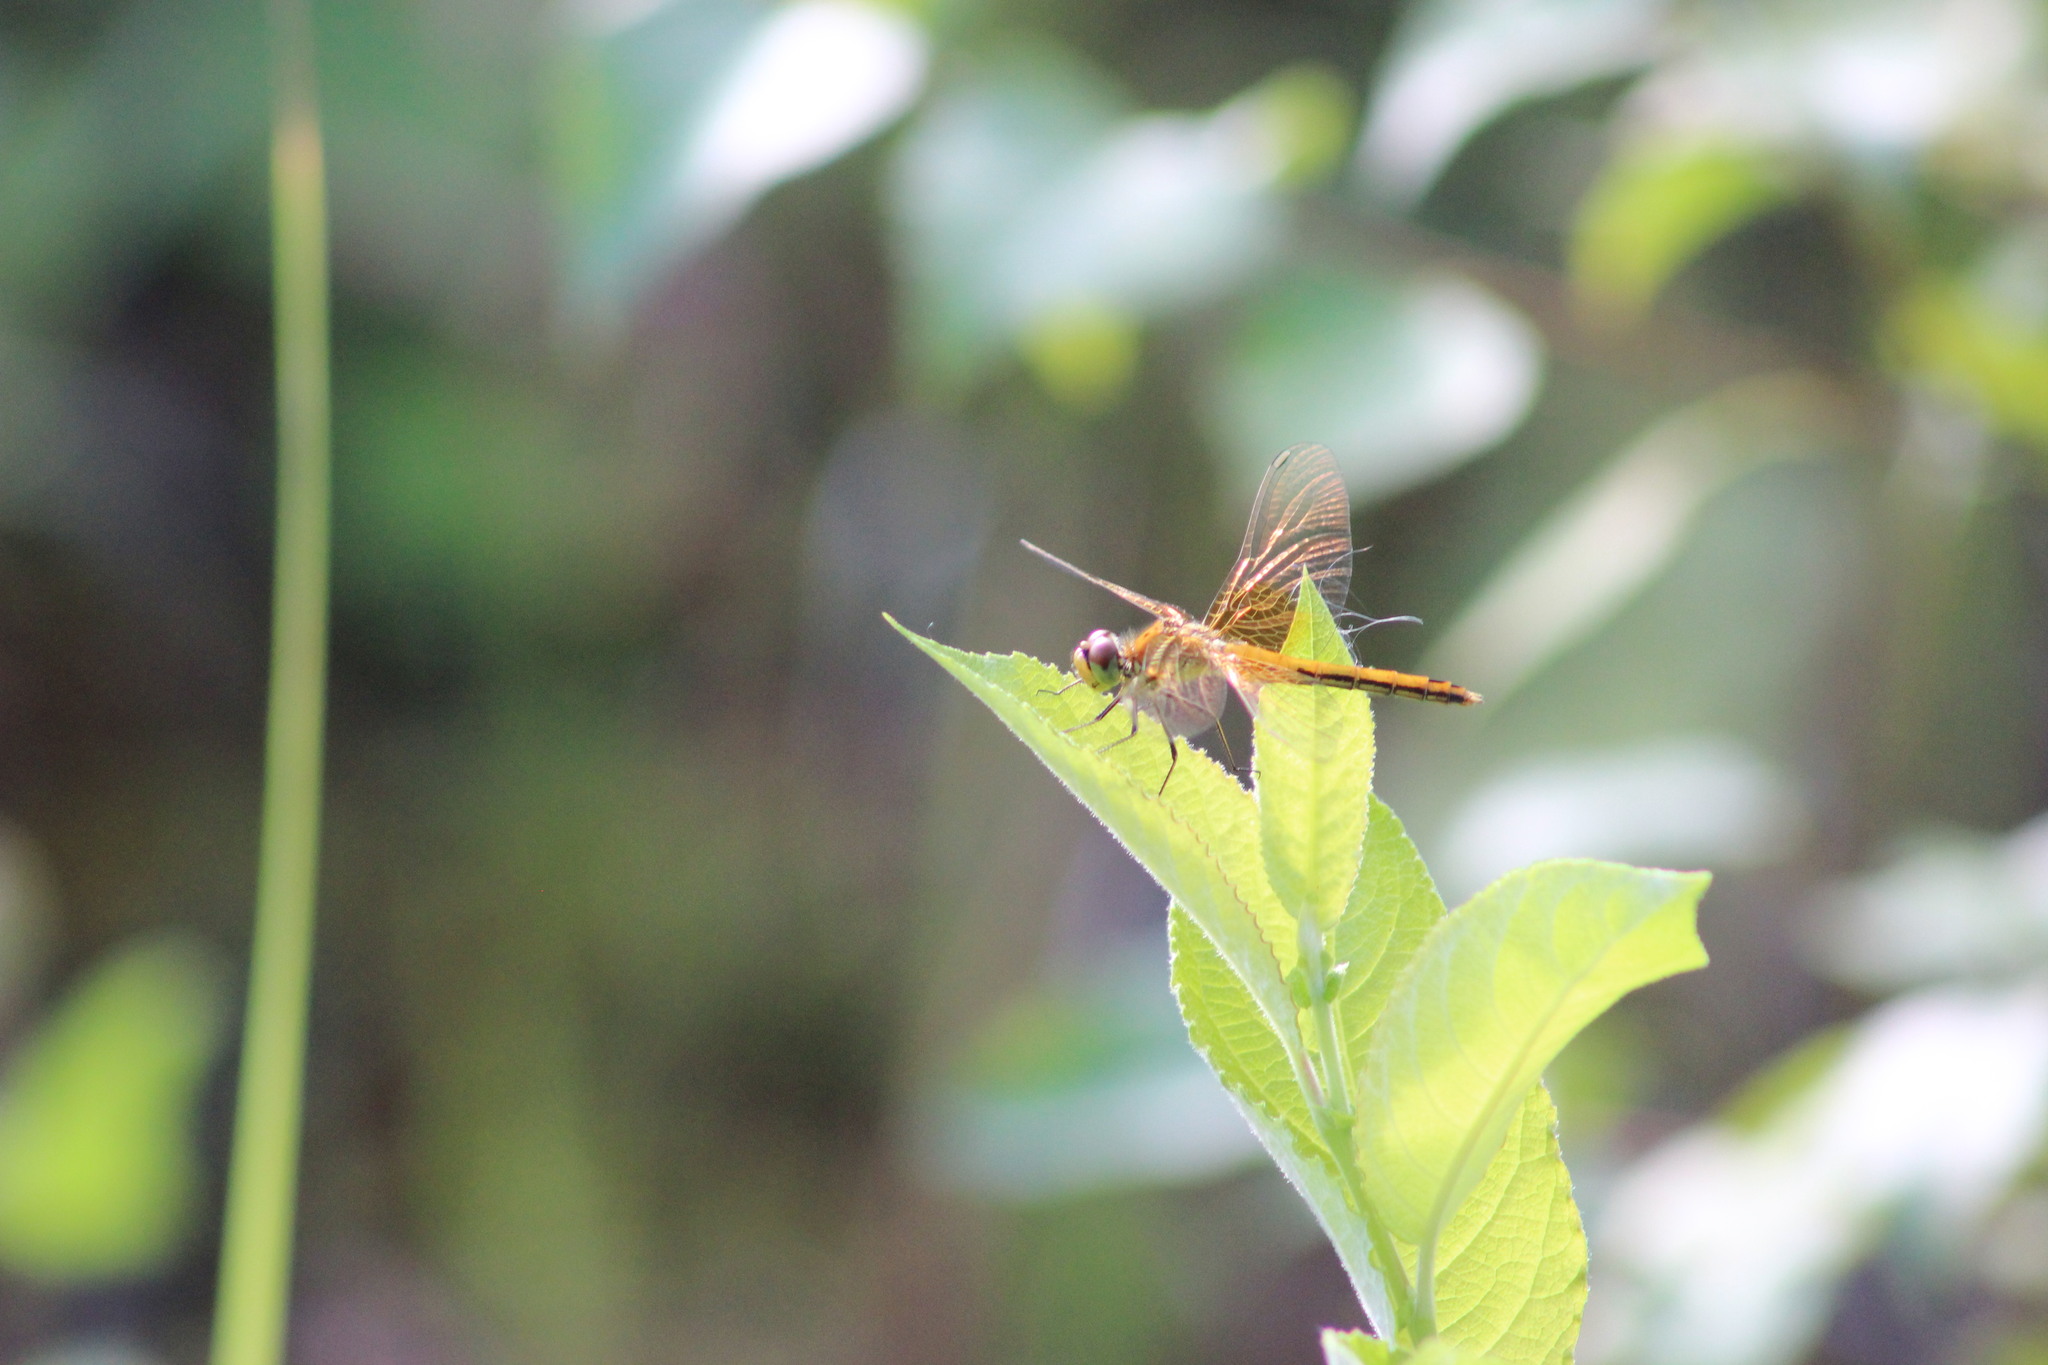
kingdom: Animalia
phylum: Arthropoda
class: Insecta
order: Odonata
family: Libellulidae
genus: Sympetrum
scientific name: Sympetrum flaveolum
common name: Yellow-winged darter
